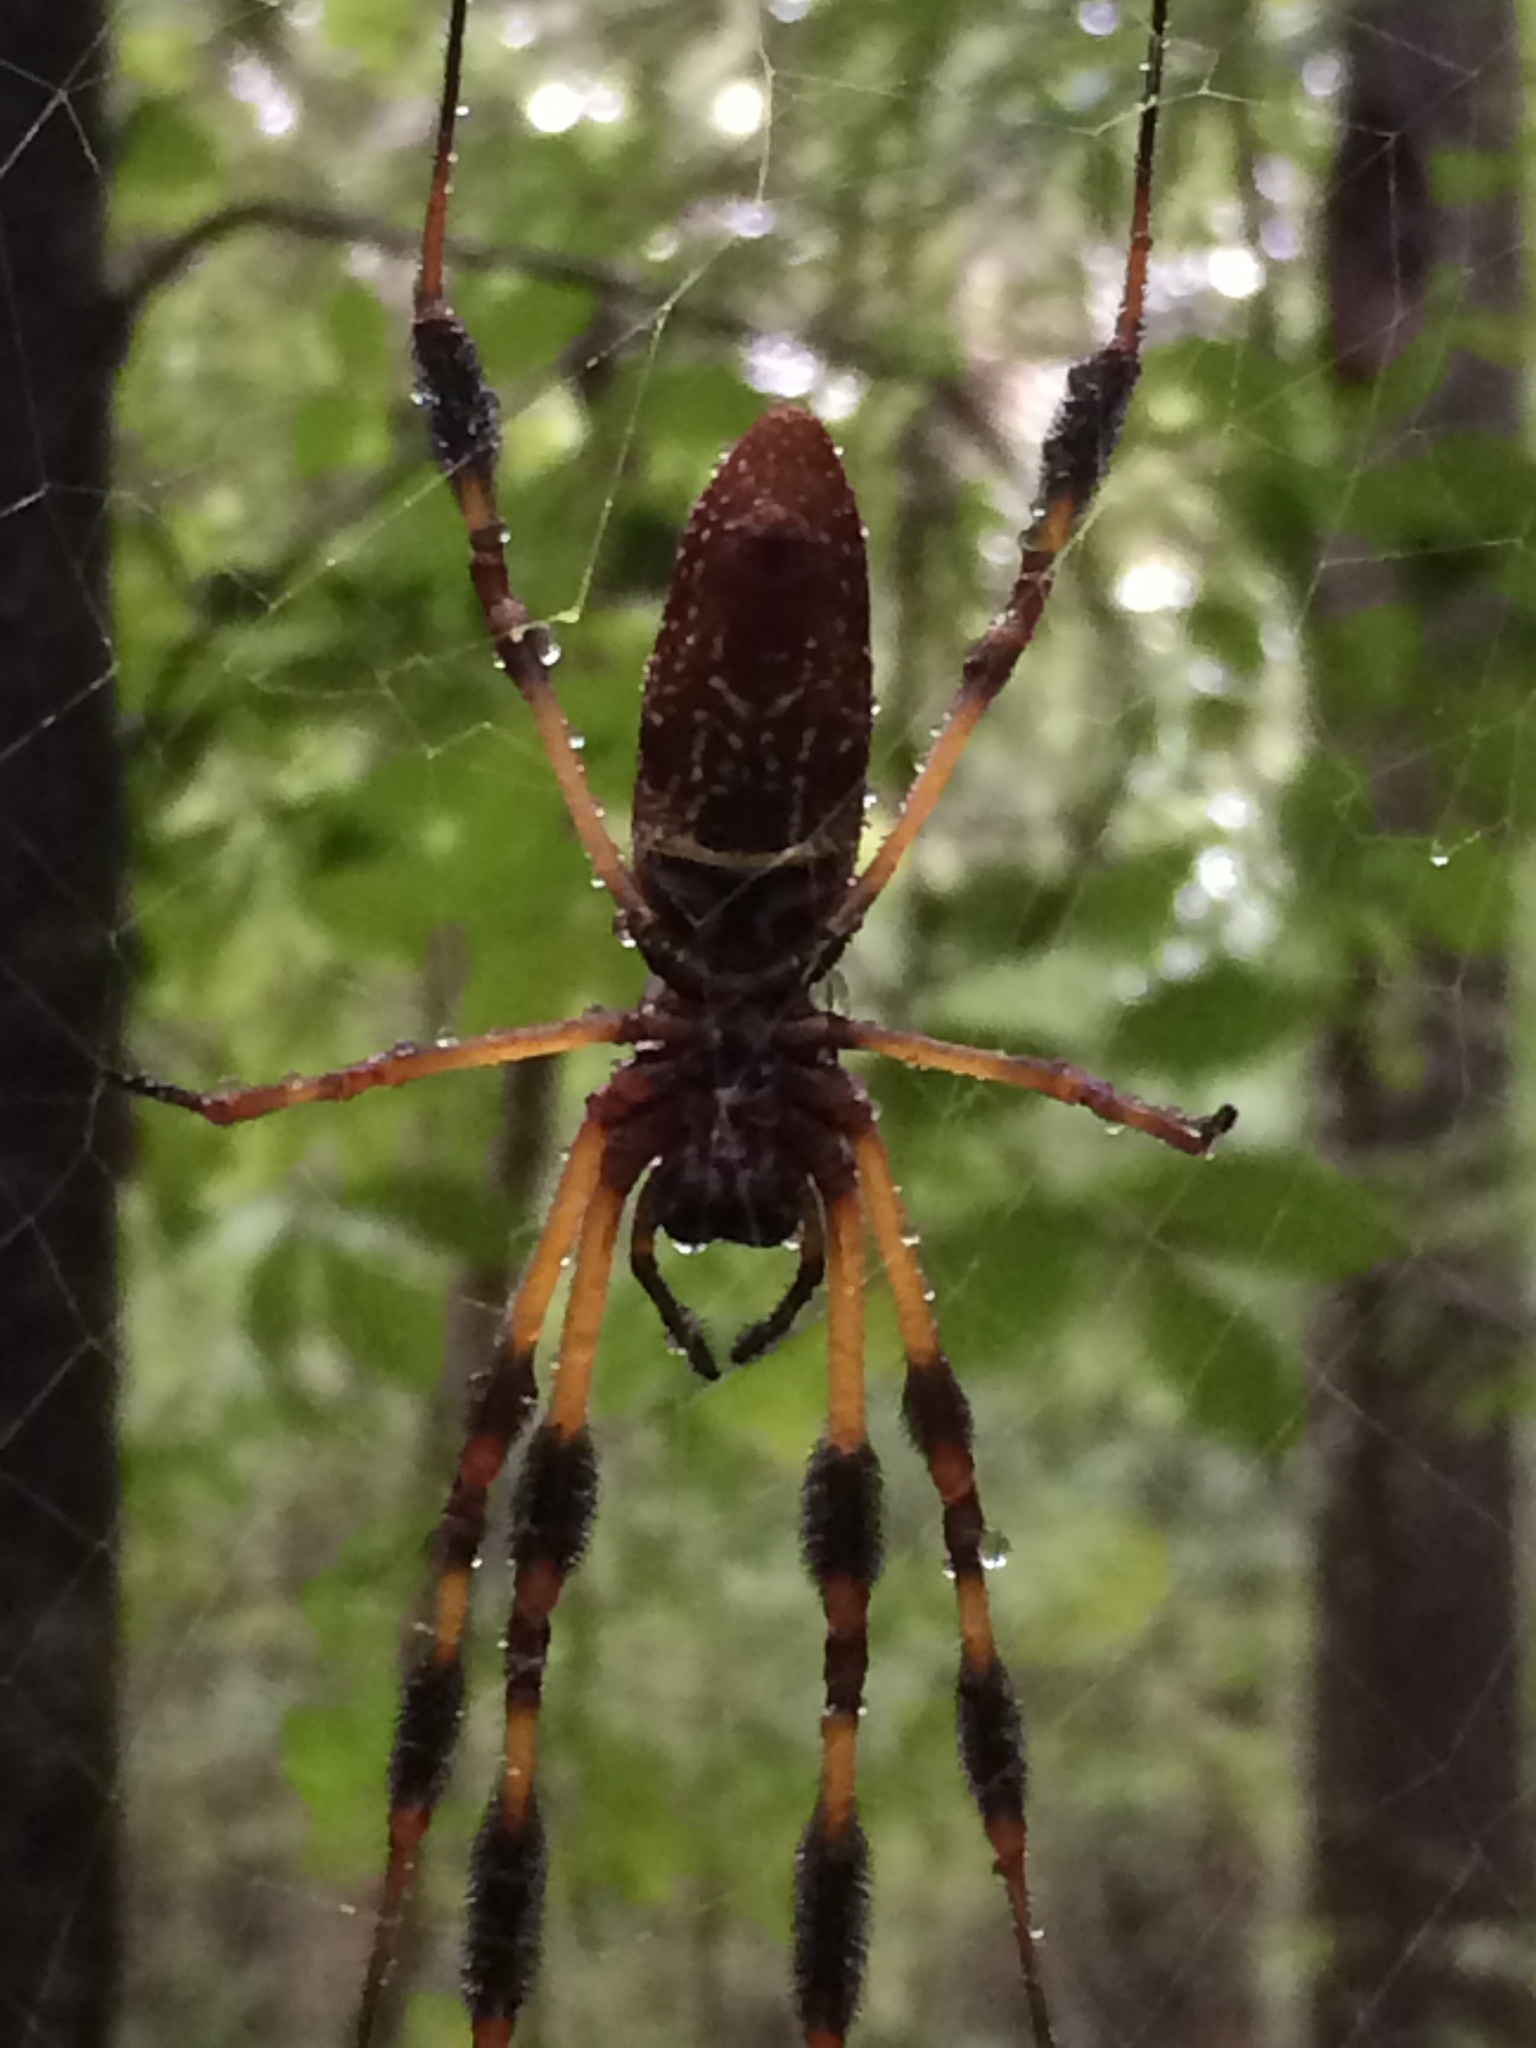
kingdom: Animalia
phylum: Arthropoda
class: Arachnida
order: Araneae
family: Araneidae
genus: Trichonephila
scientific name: Trichonephila clavipes
